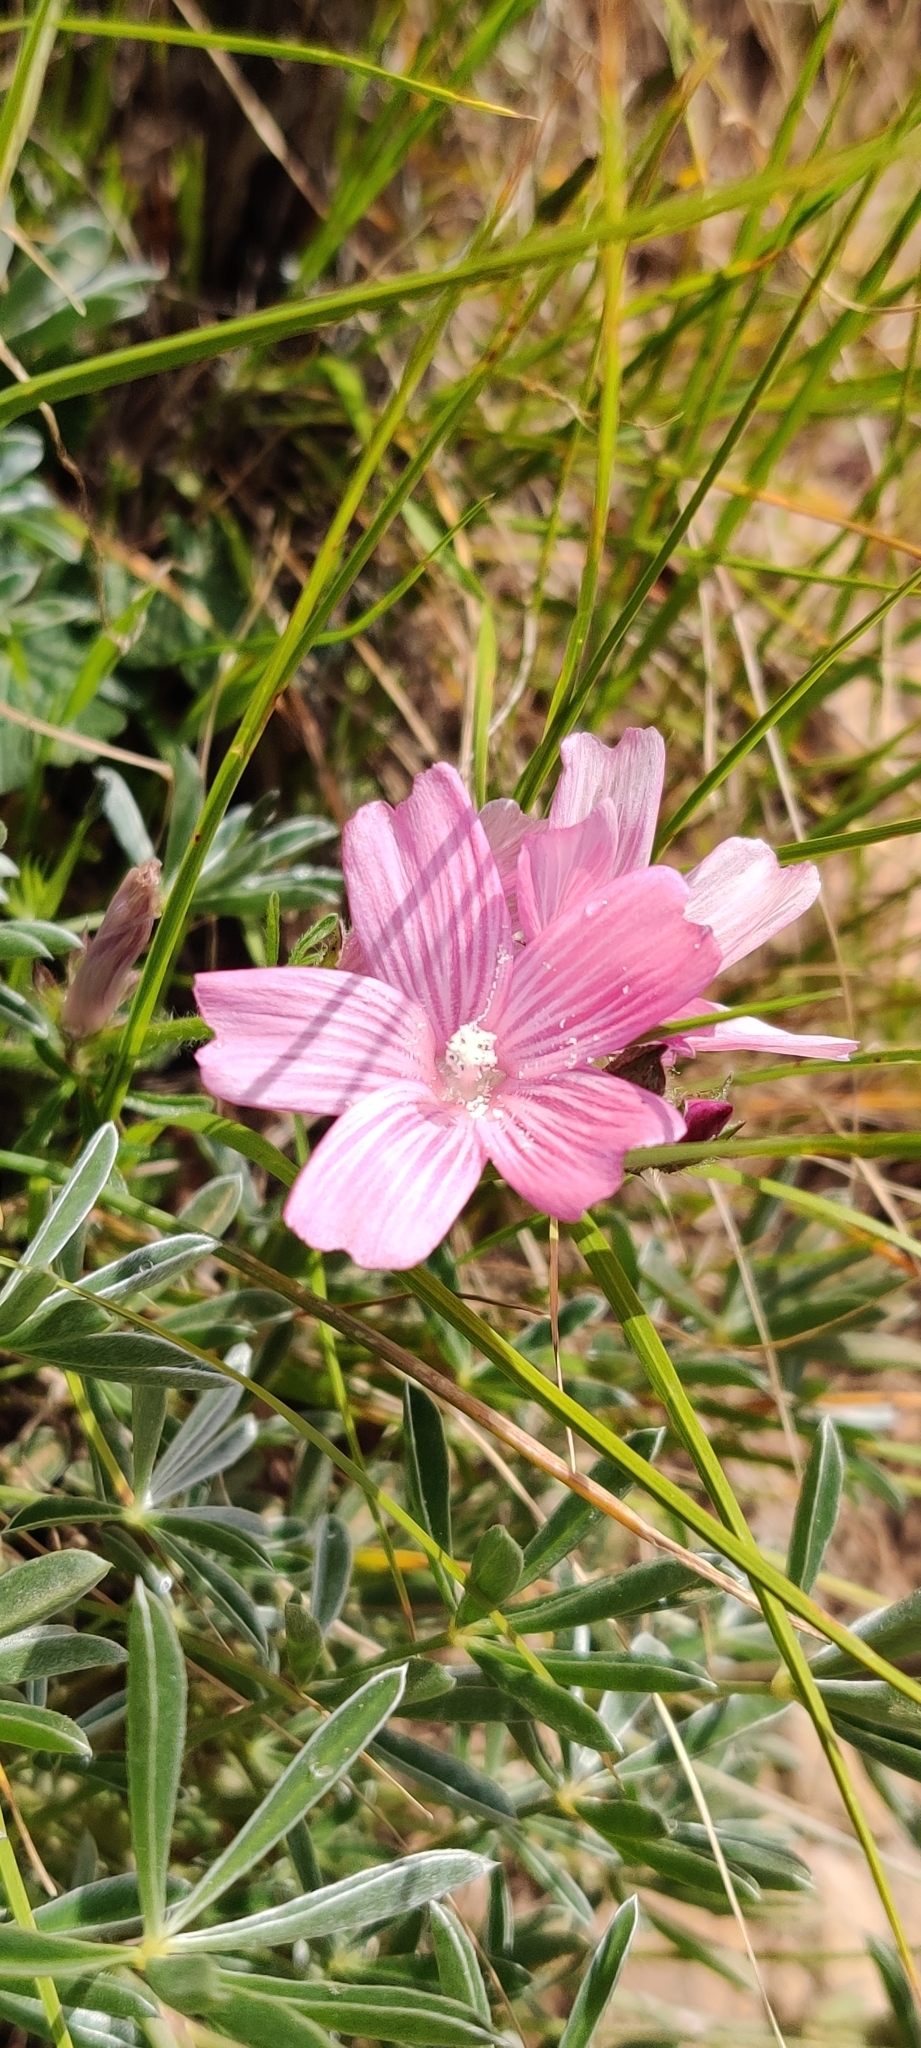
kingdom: Plantae
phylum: Tracheophyta
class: Magnoliopsida
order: Malvales
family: Malvaceae
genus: Sidalcea
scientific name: Sidalcea malviflora
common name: Greek mallow
